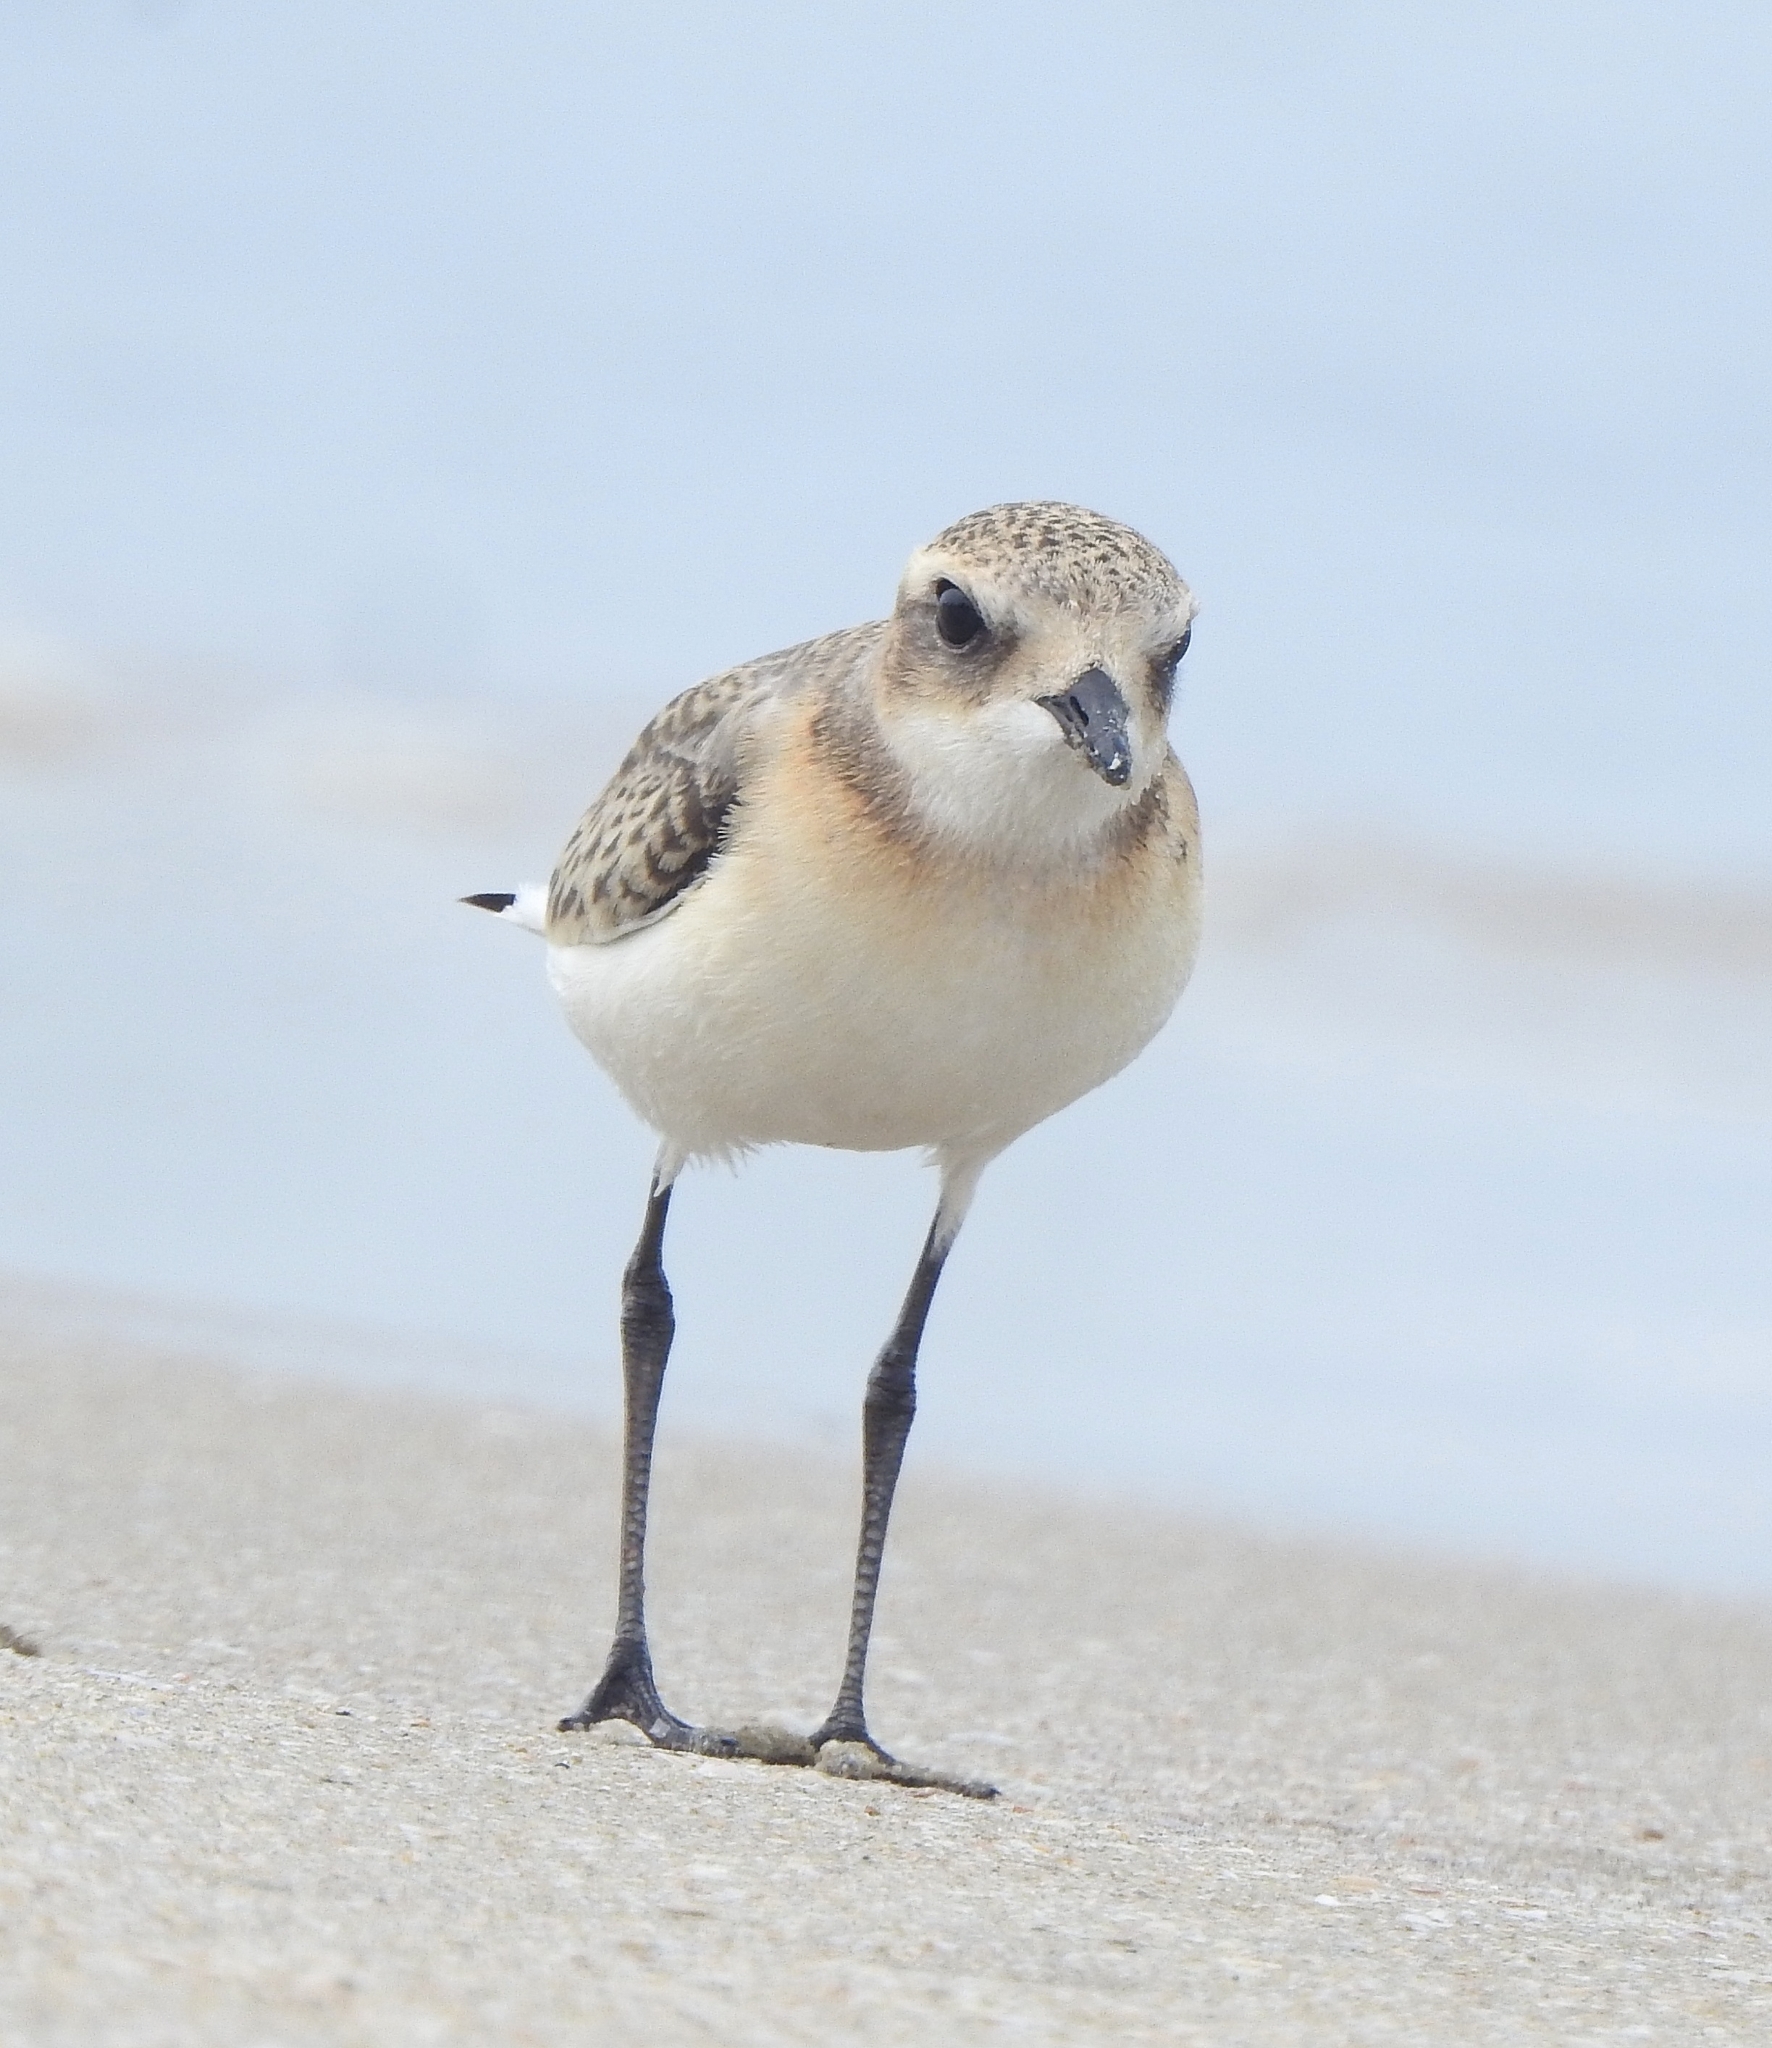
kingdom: Animalia
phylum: Chordata
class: Aves
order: Charadriiformes
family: Charadriidae
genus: Anarhynchus
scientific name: Anarhynchus
